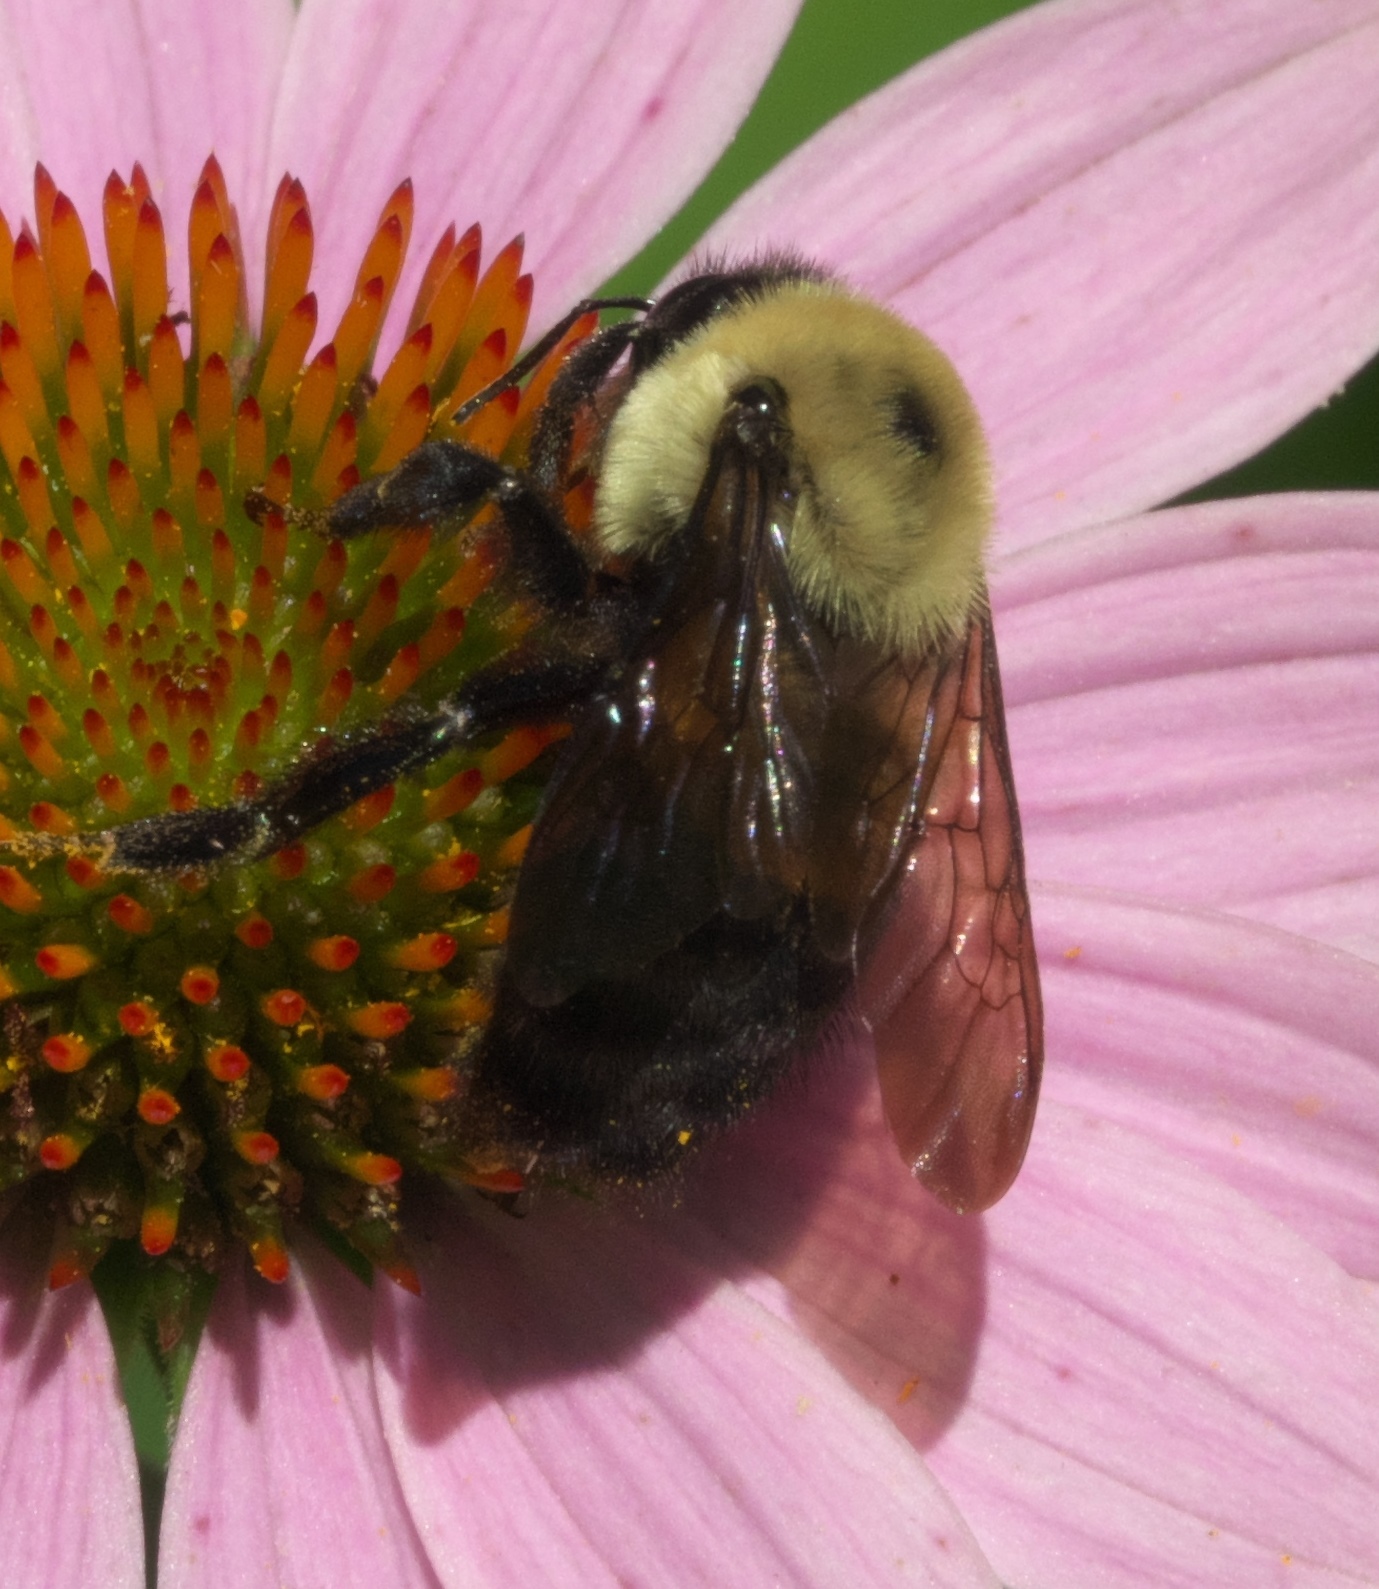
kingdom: Animalia
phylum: Arthropoda
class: Insecta
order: Hymenoptera
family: Apidae
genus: Bombus
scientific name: Bombus griseocollis
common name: Brown-belted bumble bee
